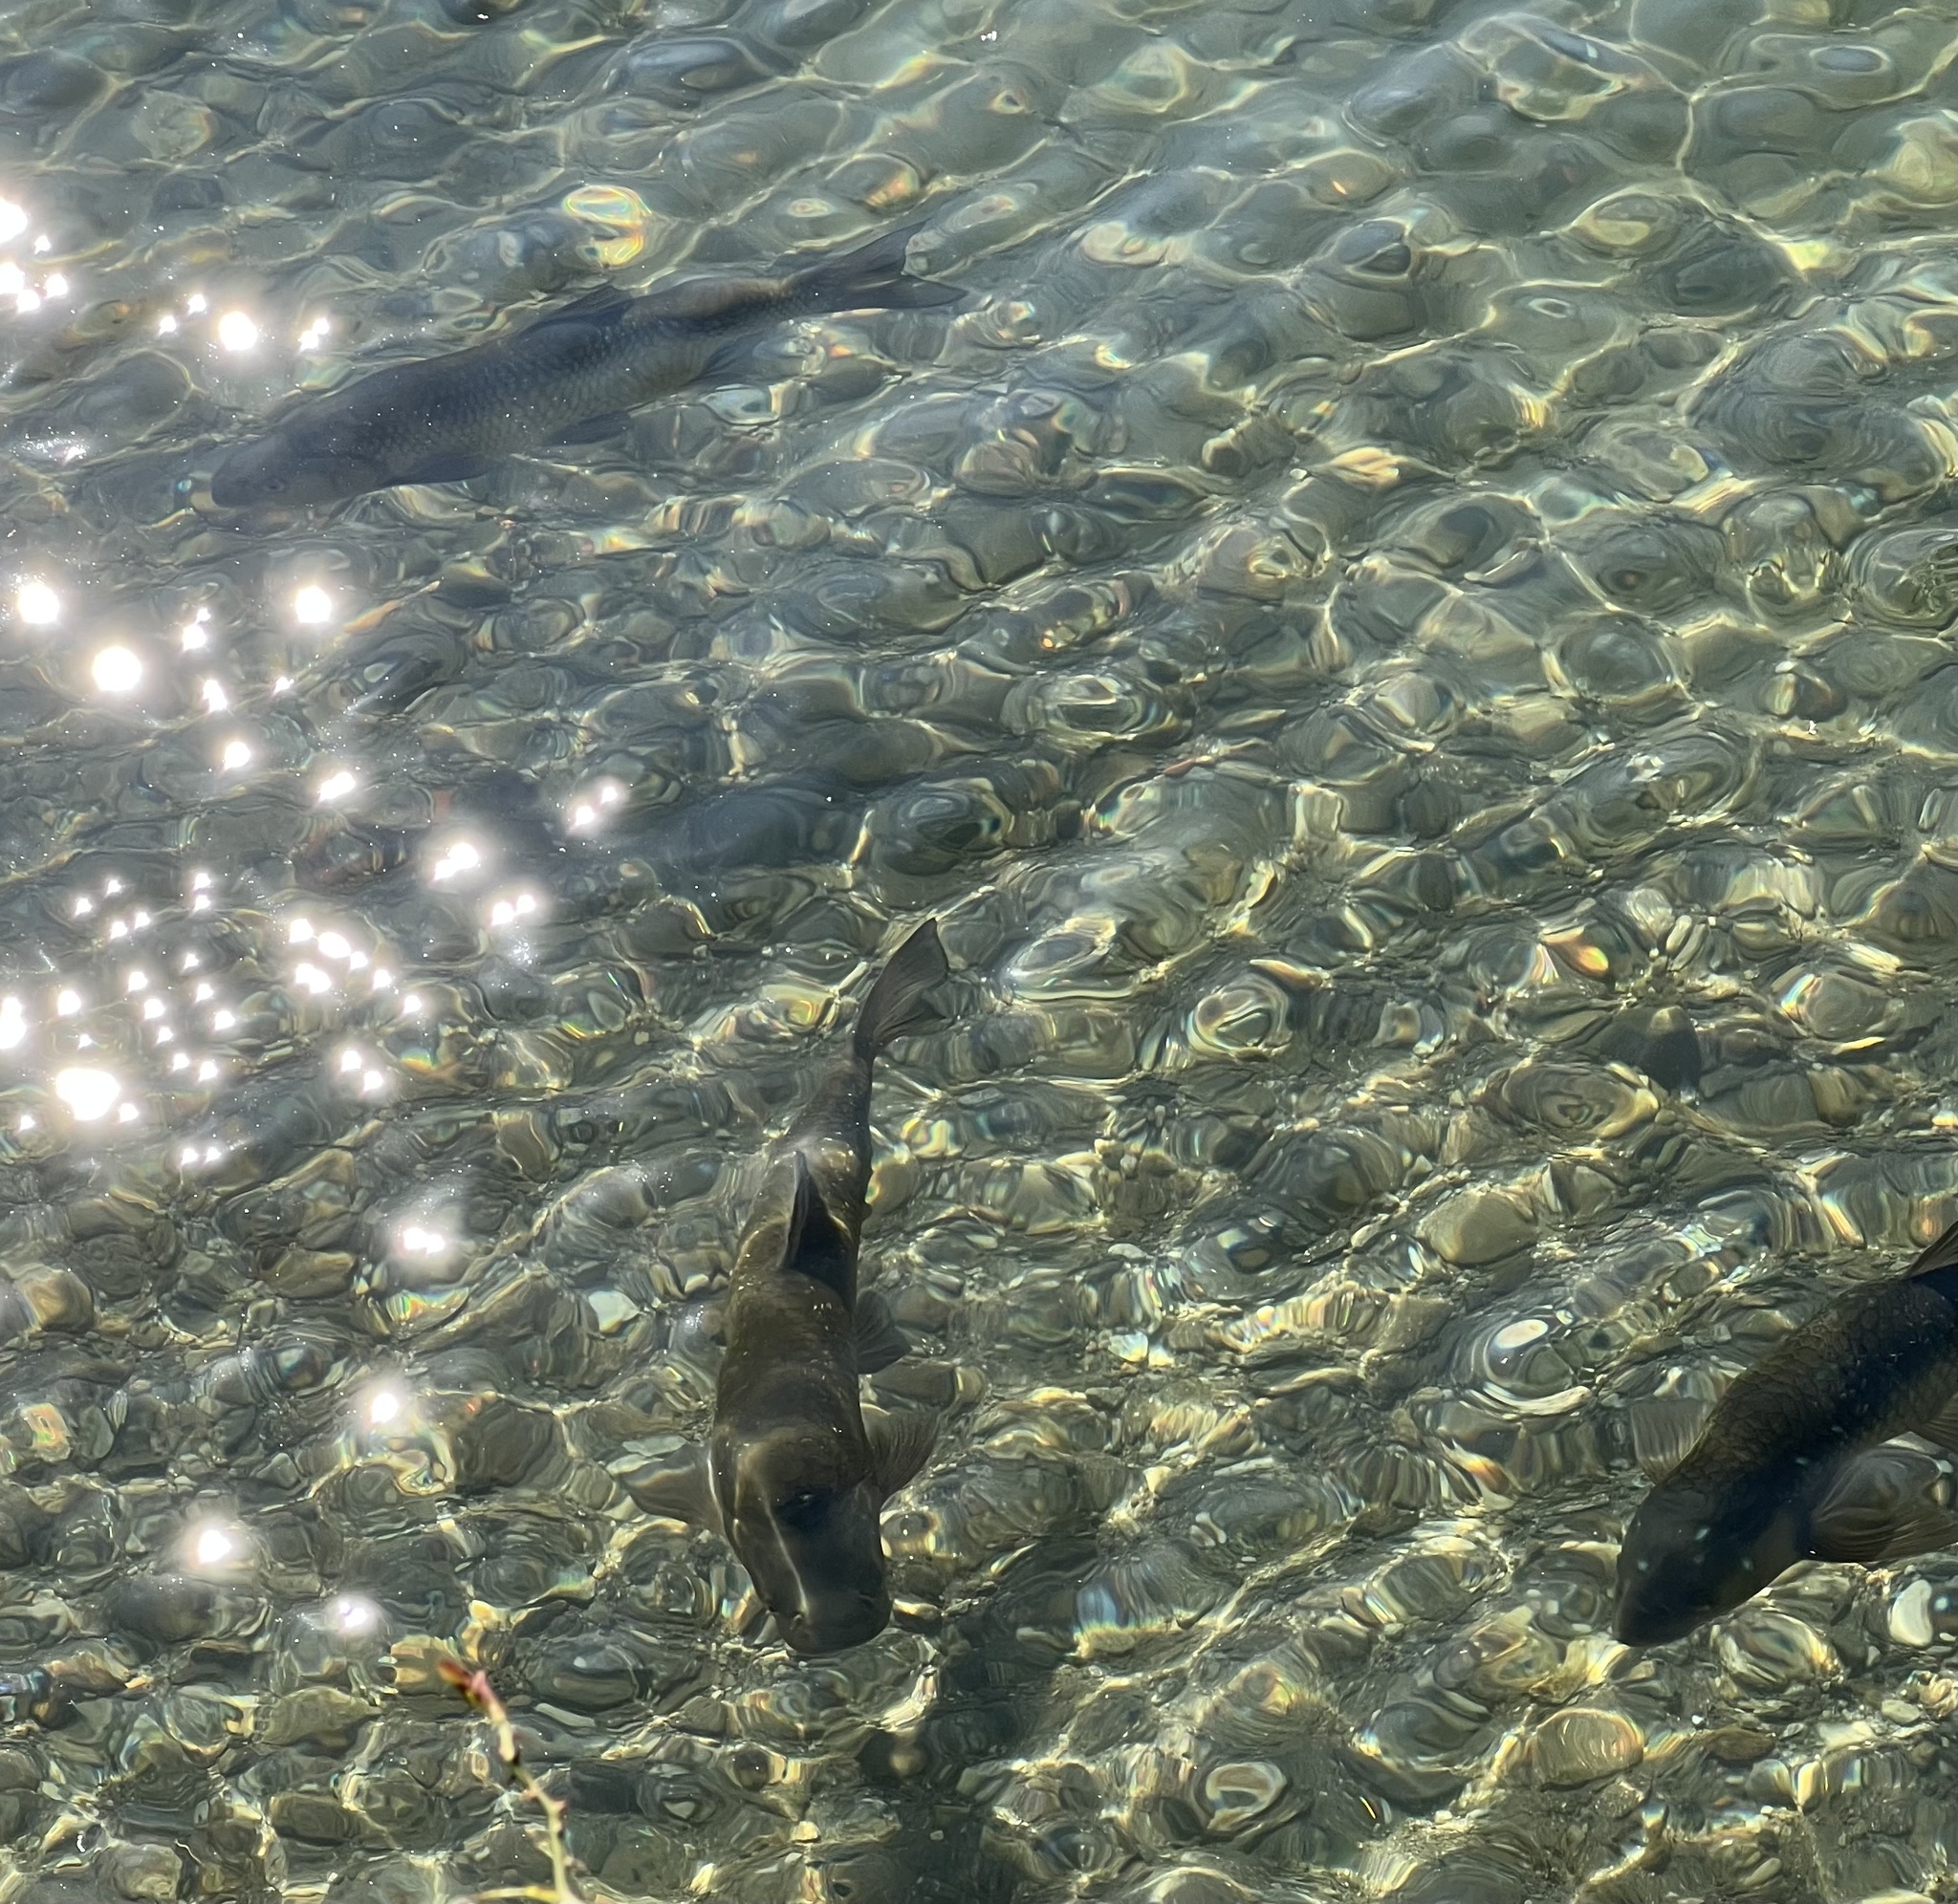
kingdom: Animalia
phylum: Chordata
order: Cypriniformes
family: Cyprinidae
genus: Squalius
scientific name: Squalius squalus
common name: Italian chub
